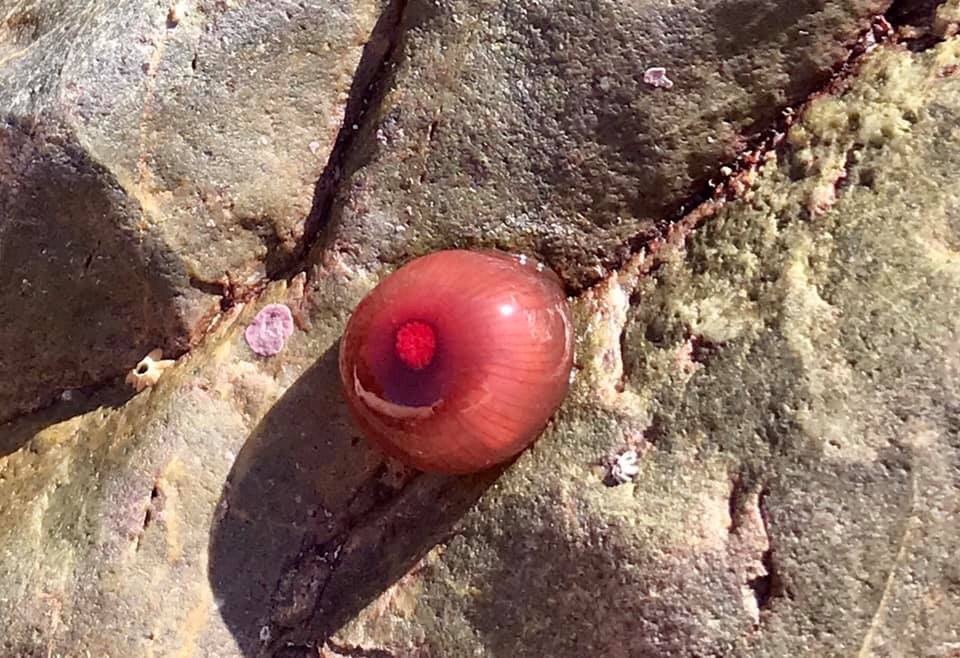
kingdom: Animalia
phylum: Cnidaria
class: Anthozoa
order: Actiniaria
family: Actiniidae
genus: Actinia
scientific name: Actinia tenebrosa
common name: Waratah anemone
